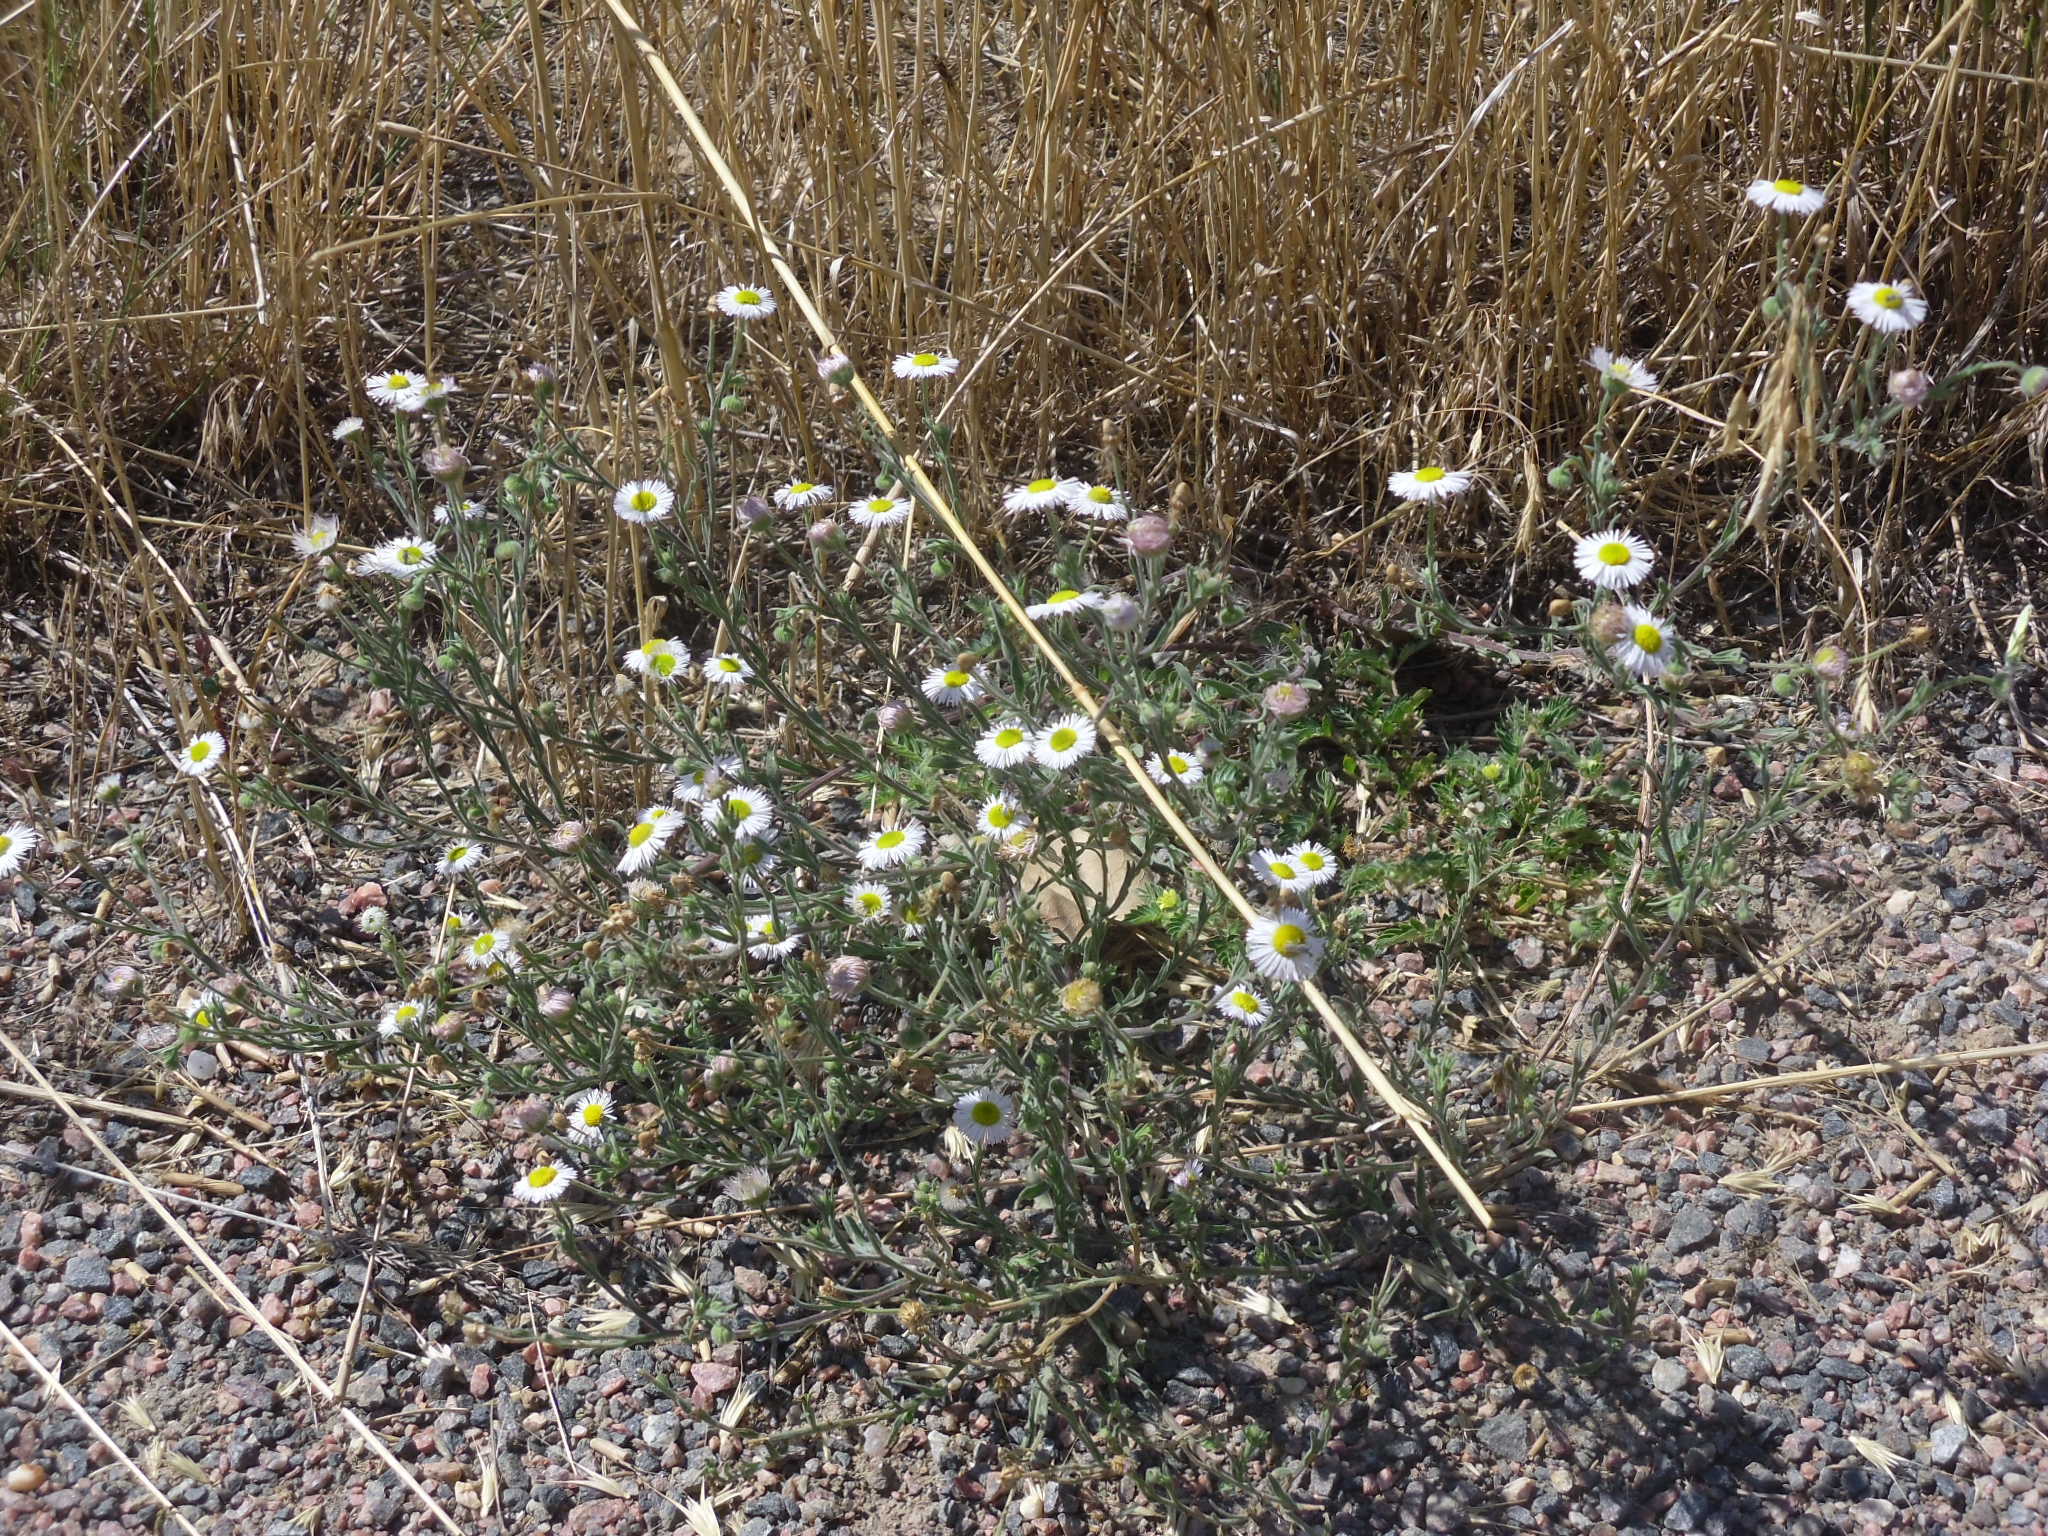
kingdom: Plantae
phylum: Tracheophyta
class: Magnoliopsida
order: Asterales
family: Asteraceae
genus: Erigeron
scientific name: Erigeron divergens
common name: Diffuse fleabane
